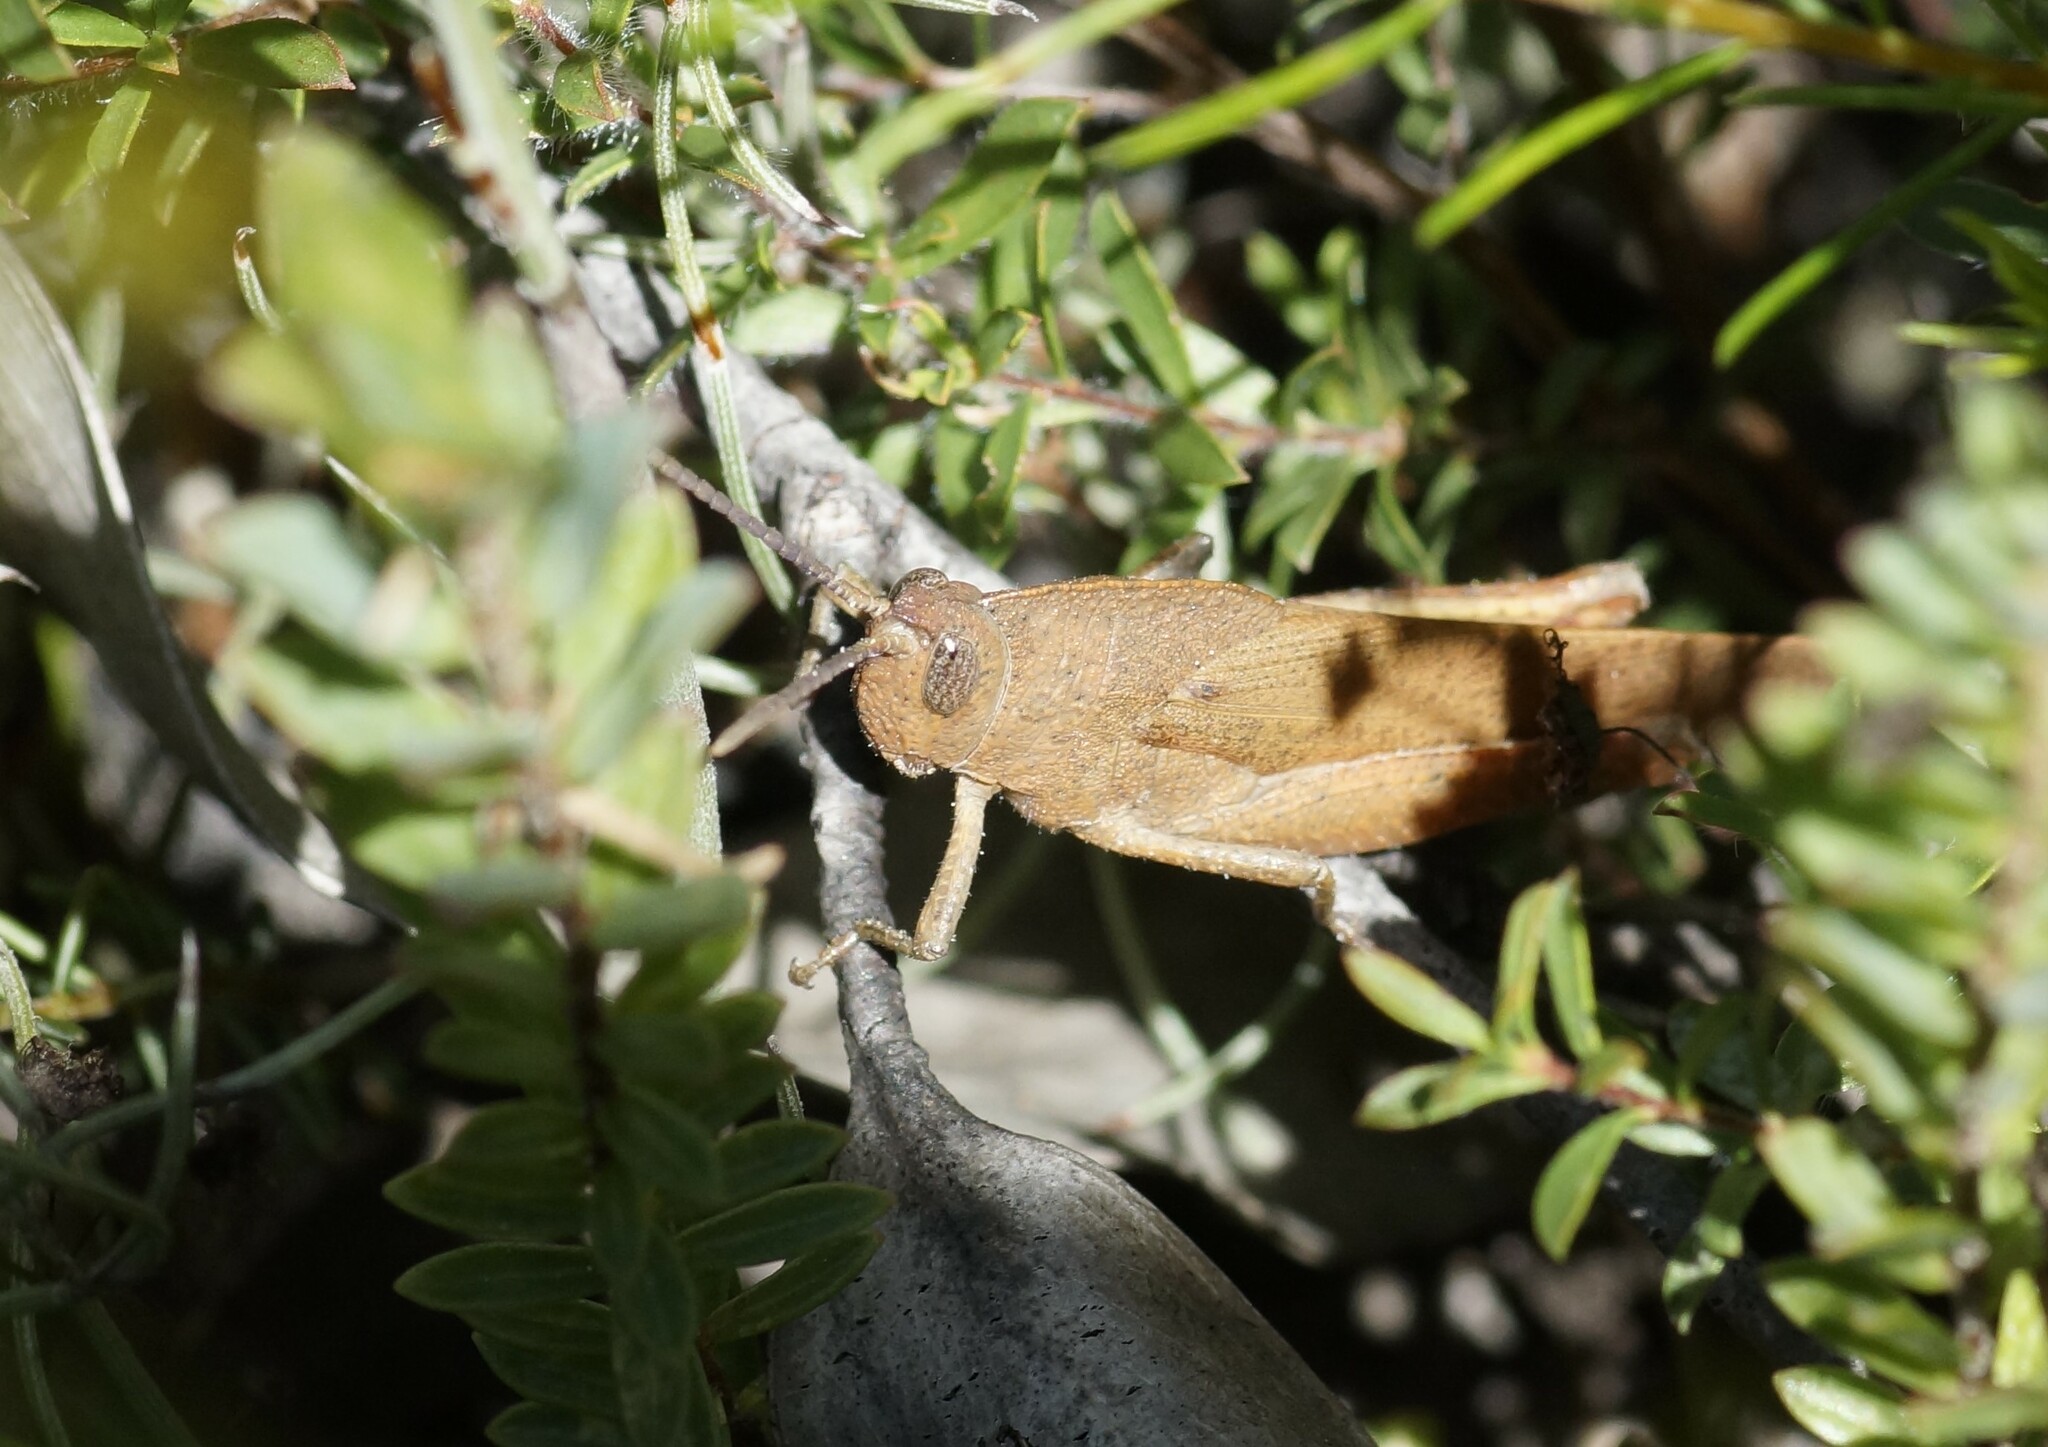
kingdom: Animalia
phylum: Arthropoda
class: Insecta
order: Orthoptera
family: Acrididae
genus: Goniaea
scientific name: Goniaea australasiae
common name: Gumleaf grasshopper
